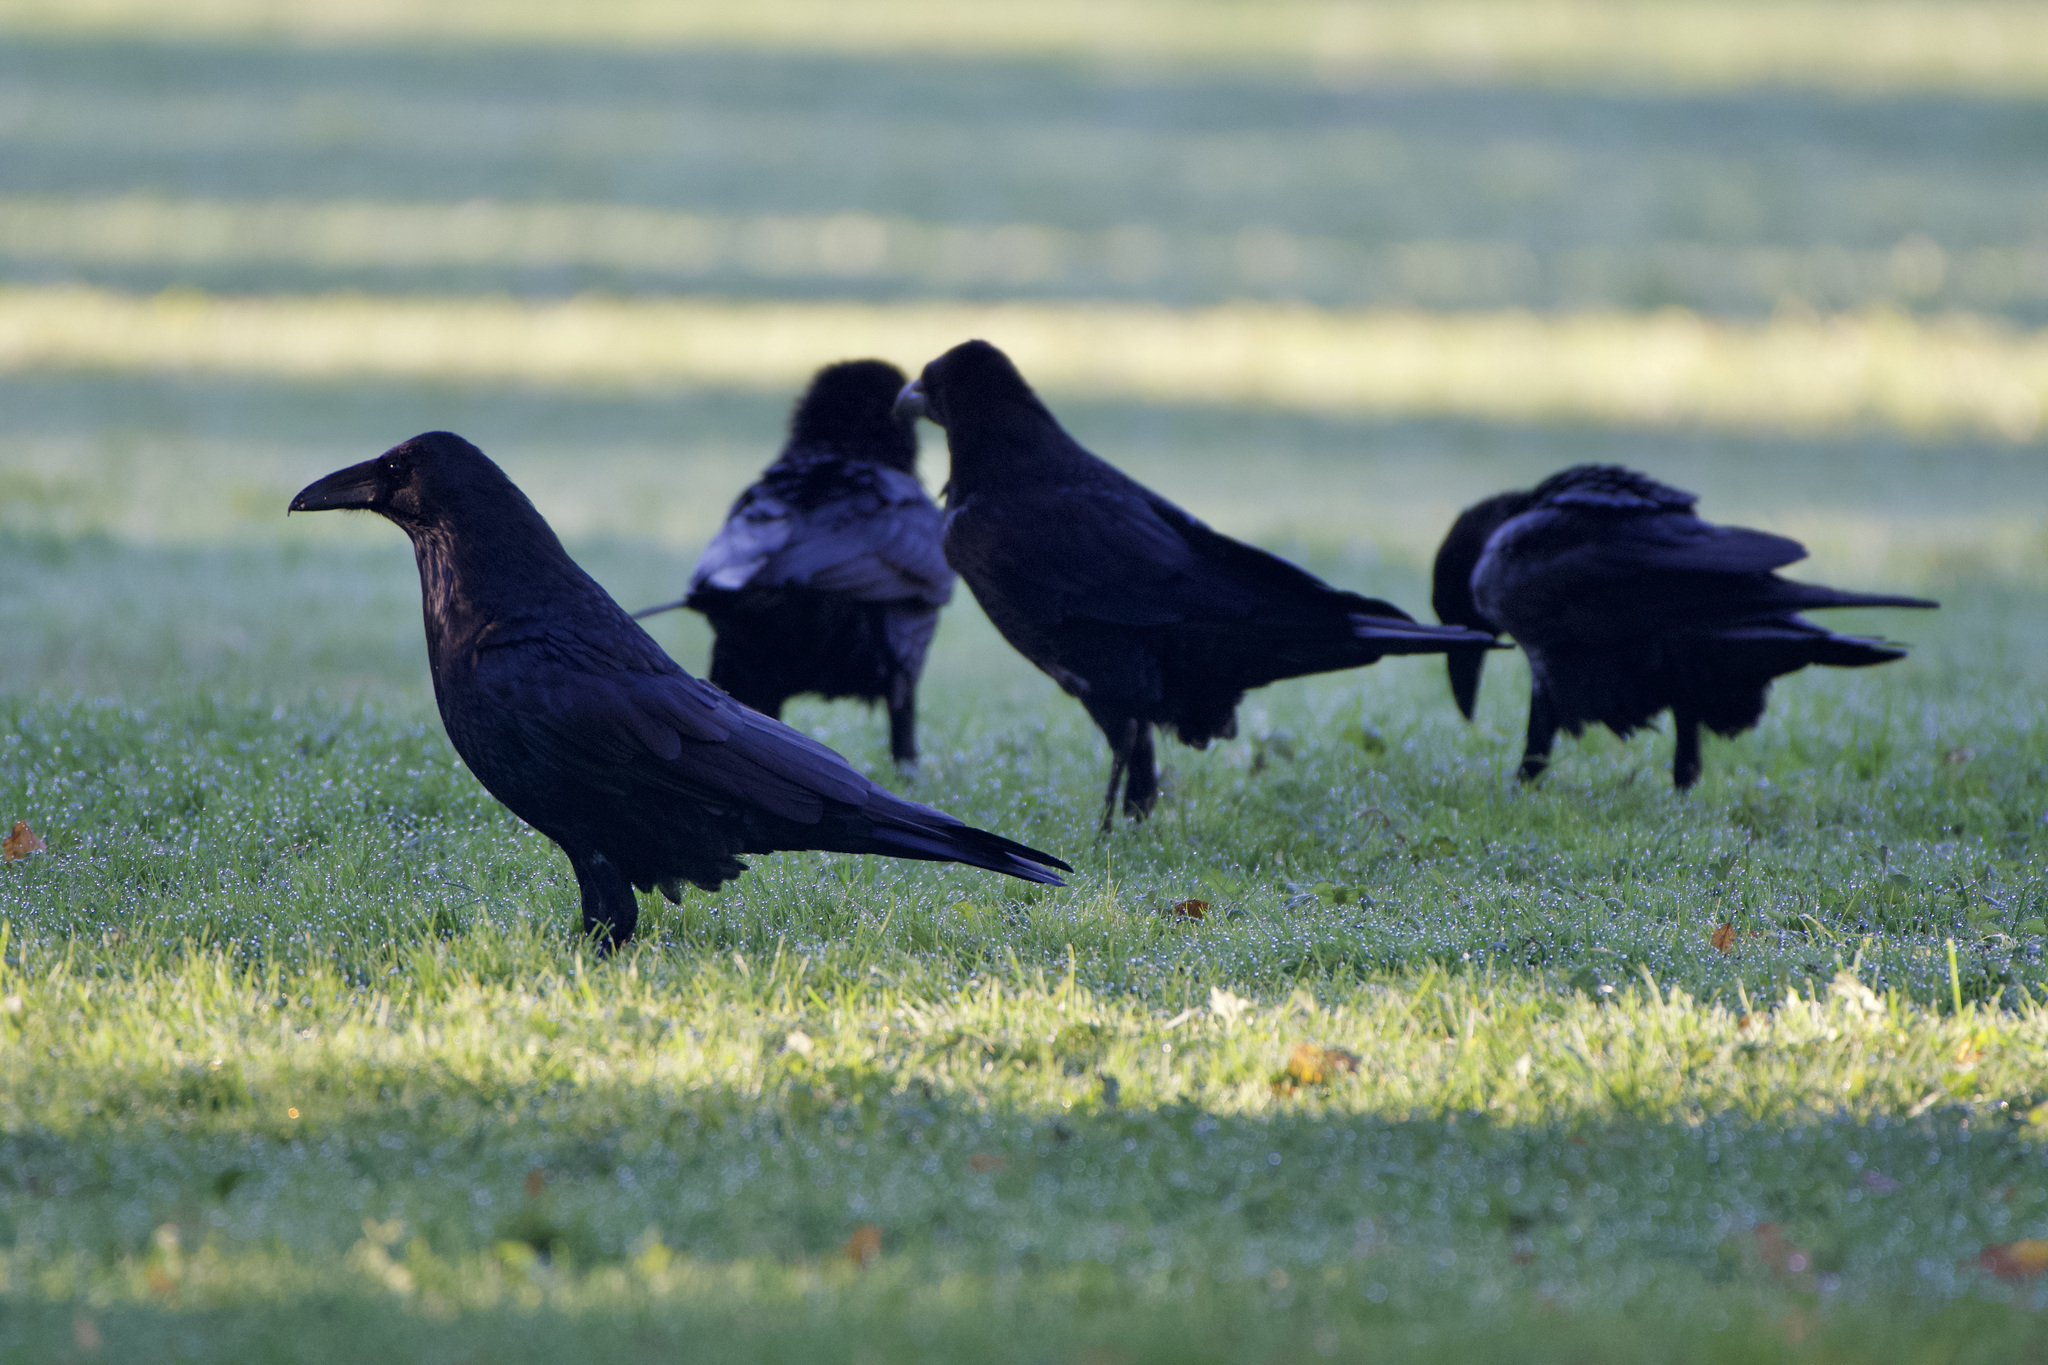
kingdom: Animalia
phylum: Chordata
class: Aves
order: Passeriformes
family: Corvidae
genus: Corvus
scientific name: Corvus corax
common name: Common raven
